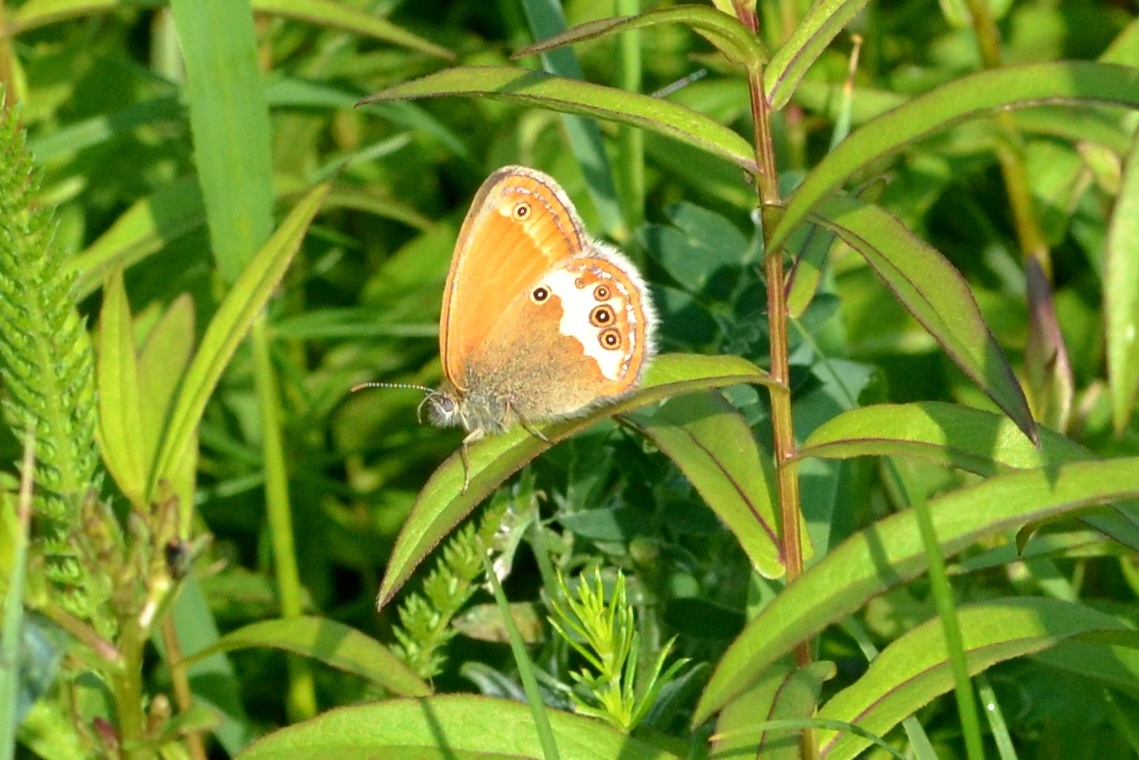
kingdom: Animalia
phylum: Arthropoda
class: Insecta
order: Lepidoptera
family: Nymphalidae
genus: Coenonympha
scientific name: Coenonympha arcania
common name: Pearly heath
